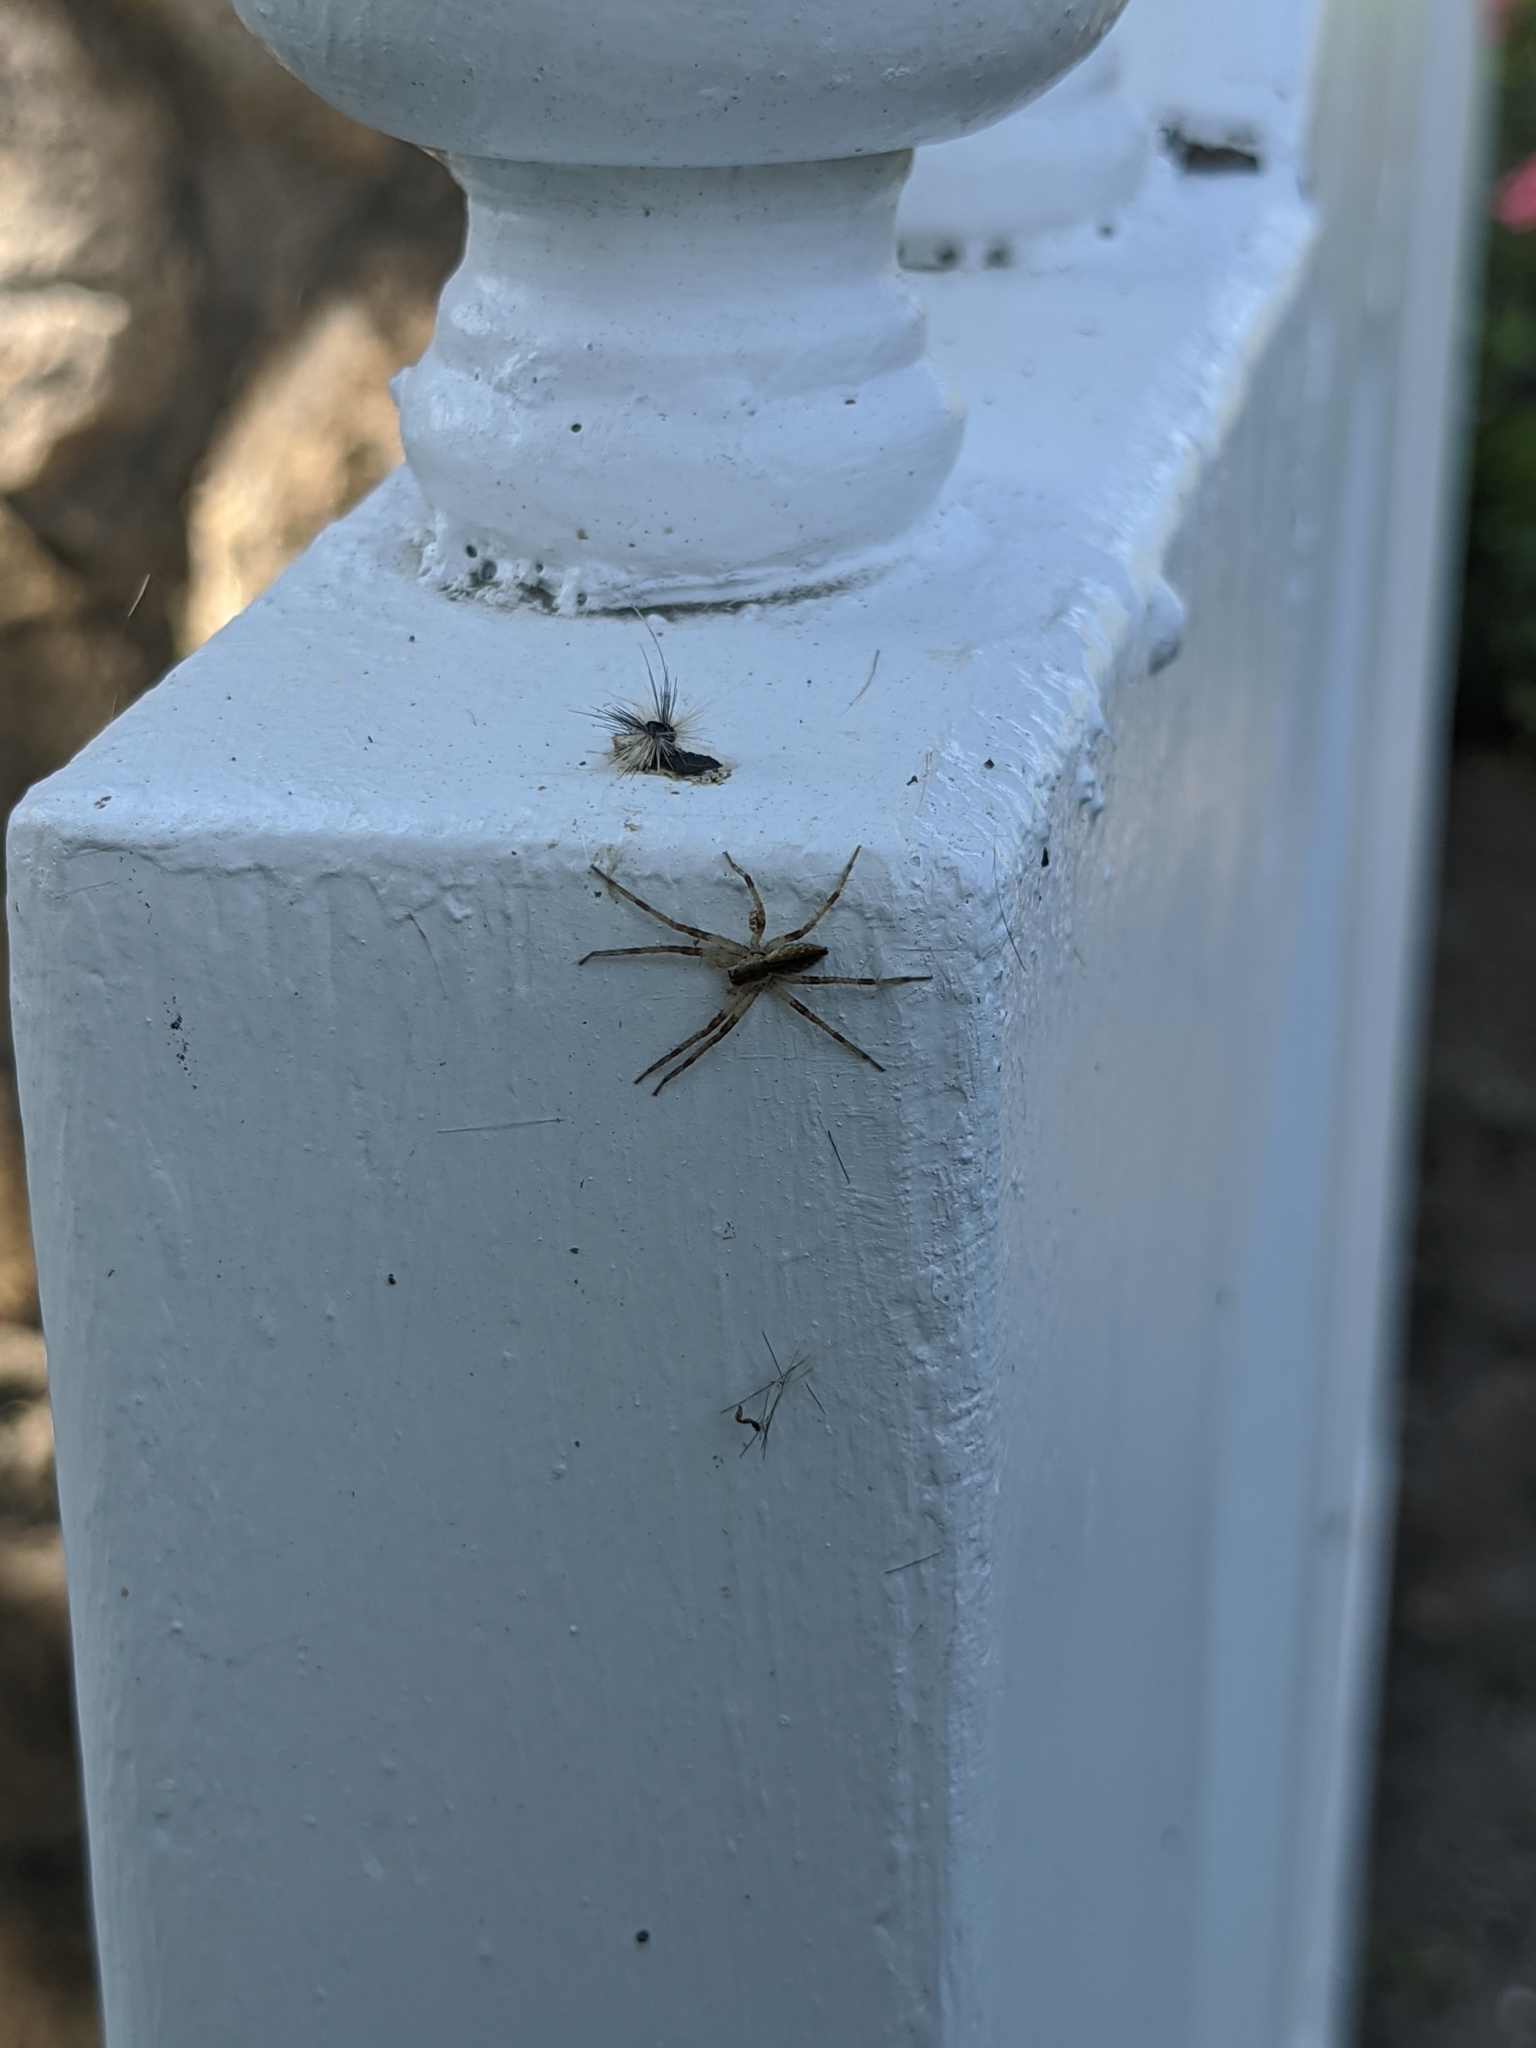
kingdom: Animalia
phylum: Arthropoda
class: Arachnida
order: Araneae
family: Pisauridae
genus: Pisaurina
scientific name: Pisaurina mira
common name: American nursery web spider
